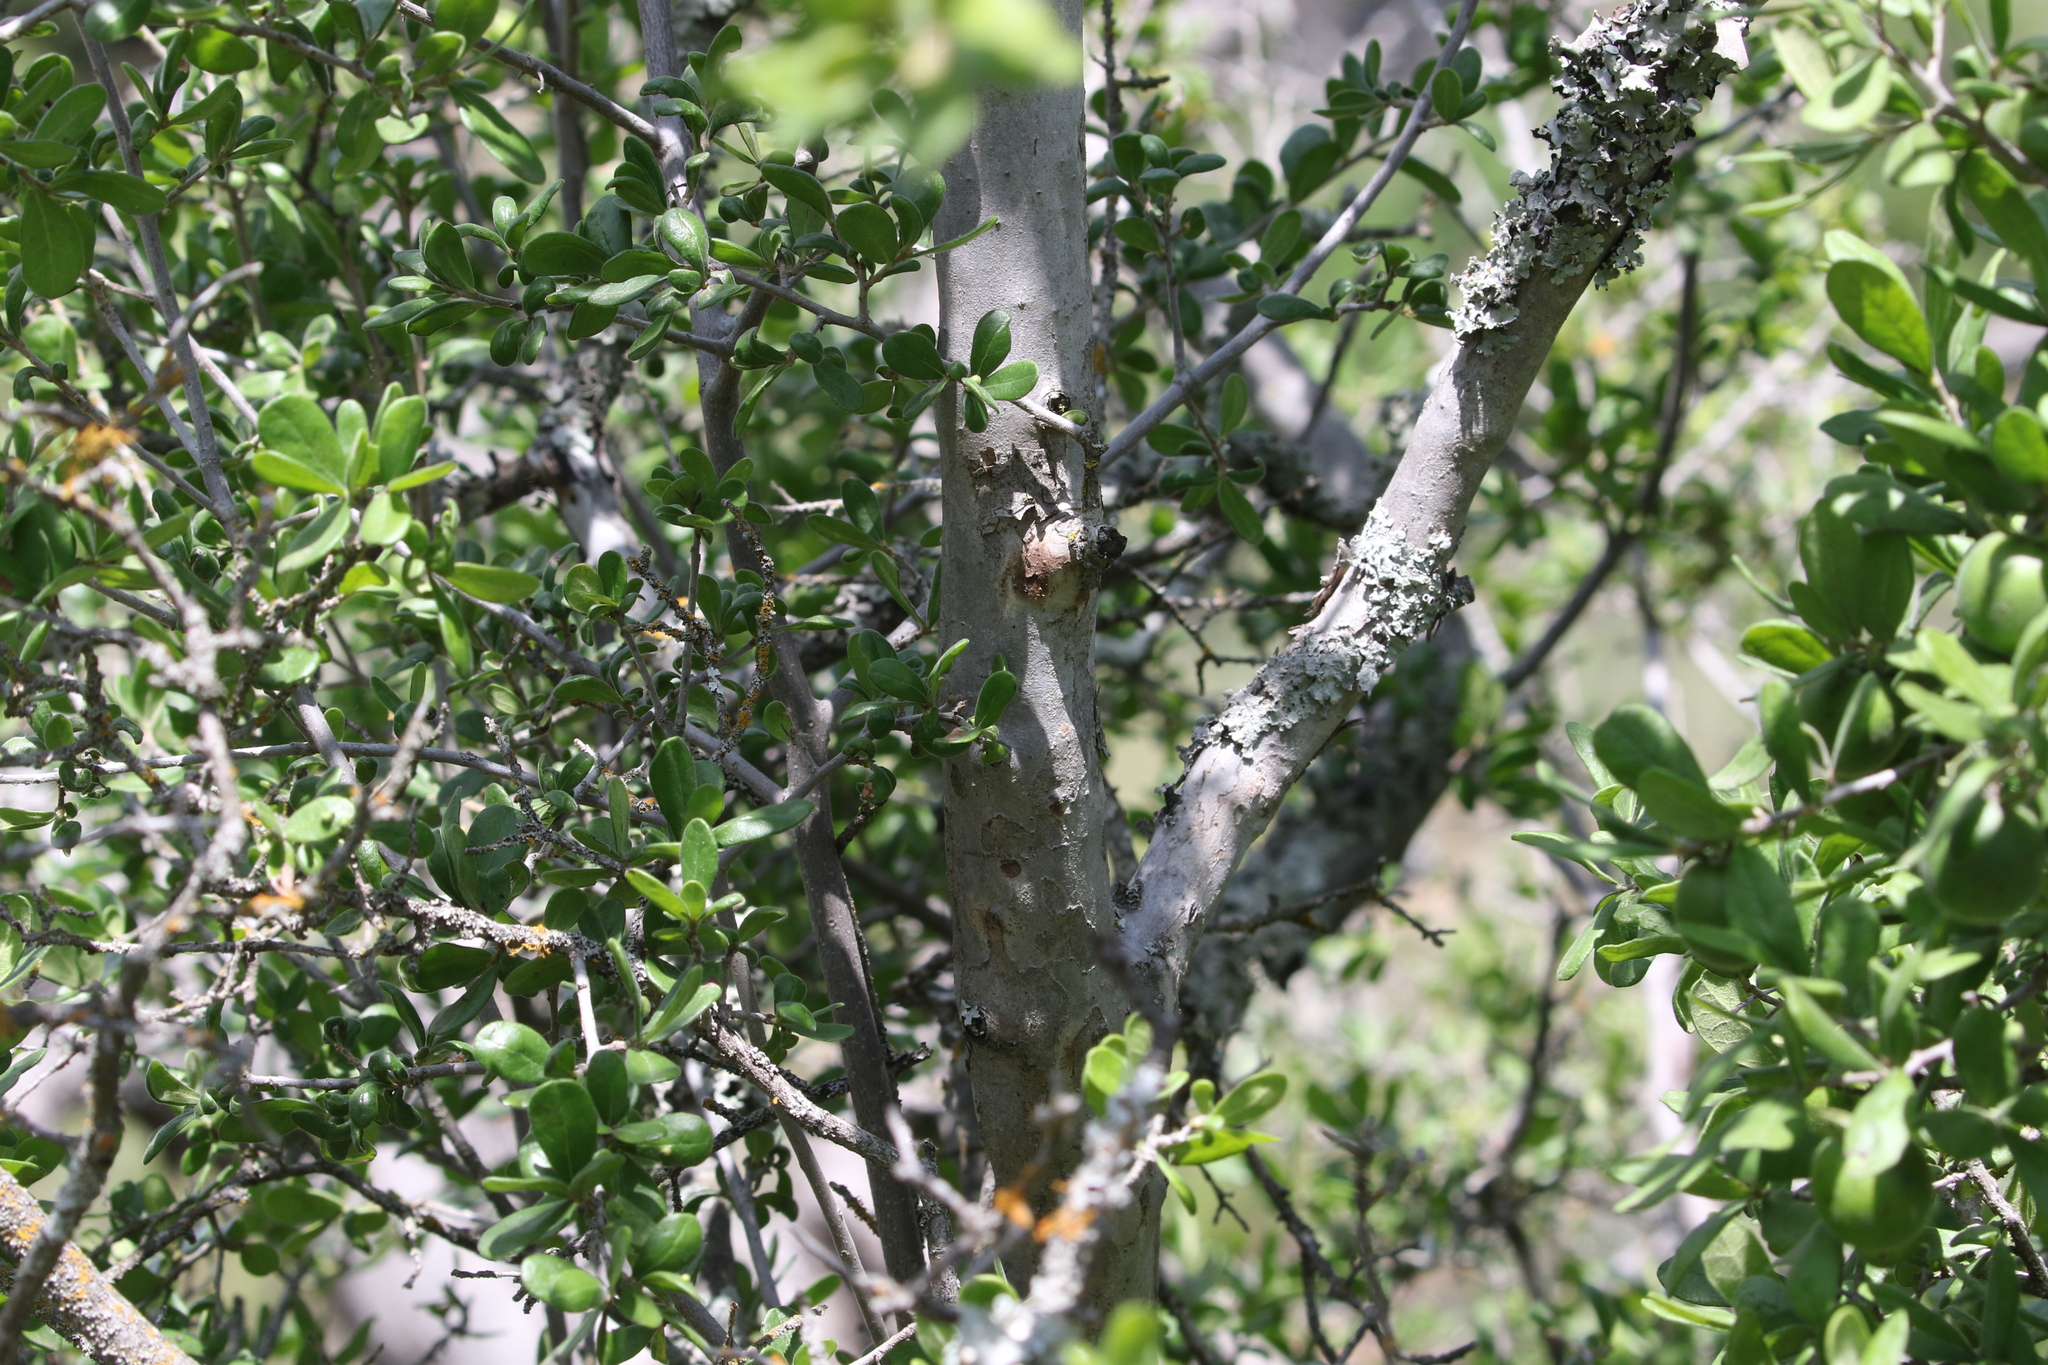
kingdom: Plantae
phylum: Tracheophyta
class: Magnoliopsida
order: Ericales
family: Ebenaceae
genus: Diospyros
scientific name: Diospyros texana
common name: Texas persimmon
